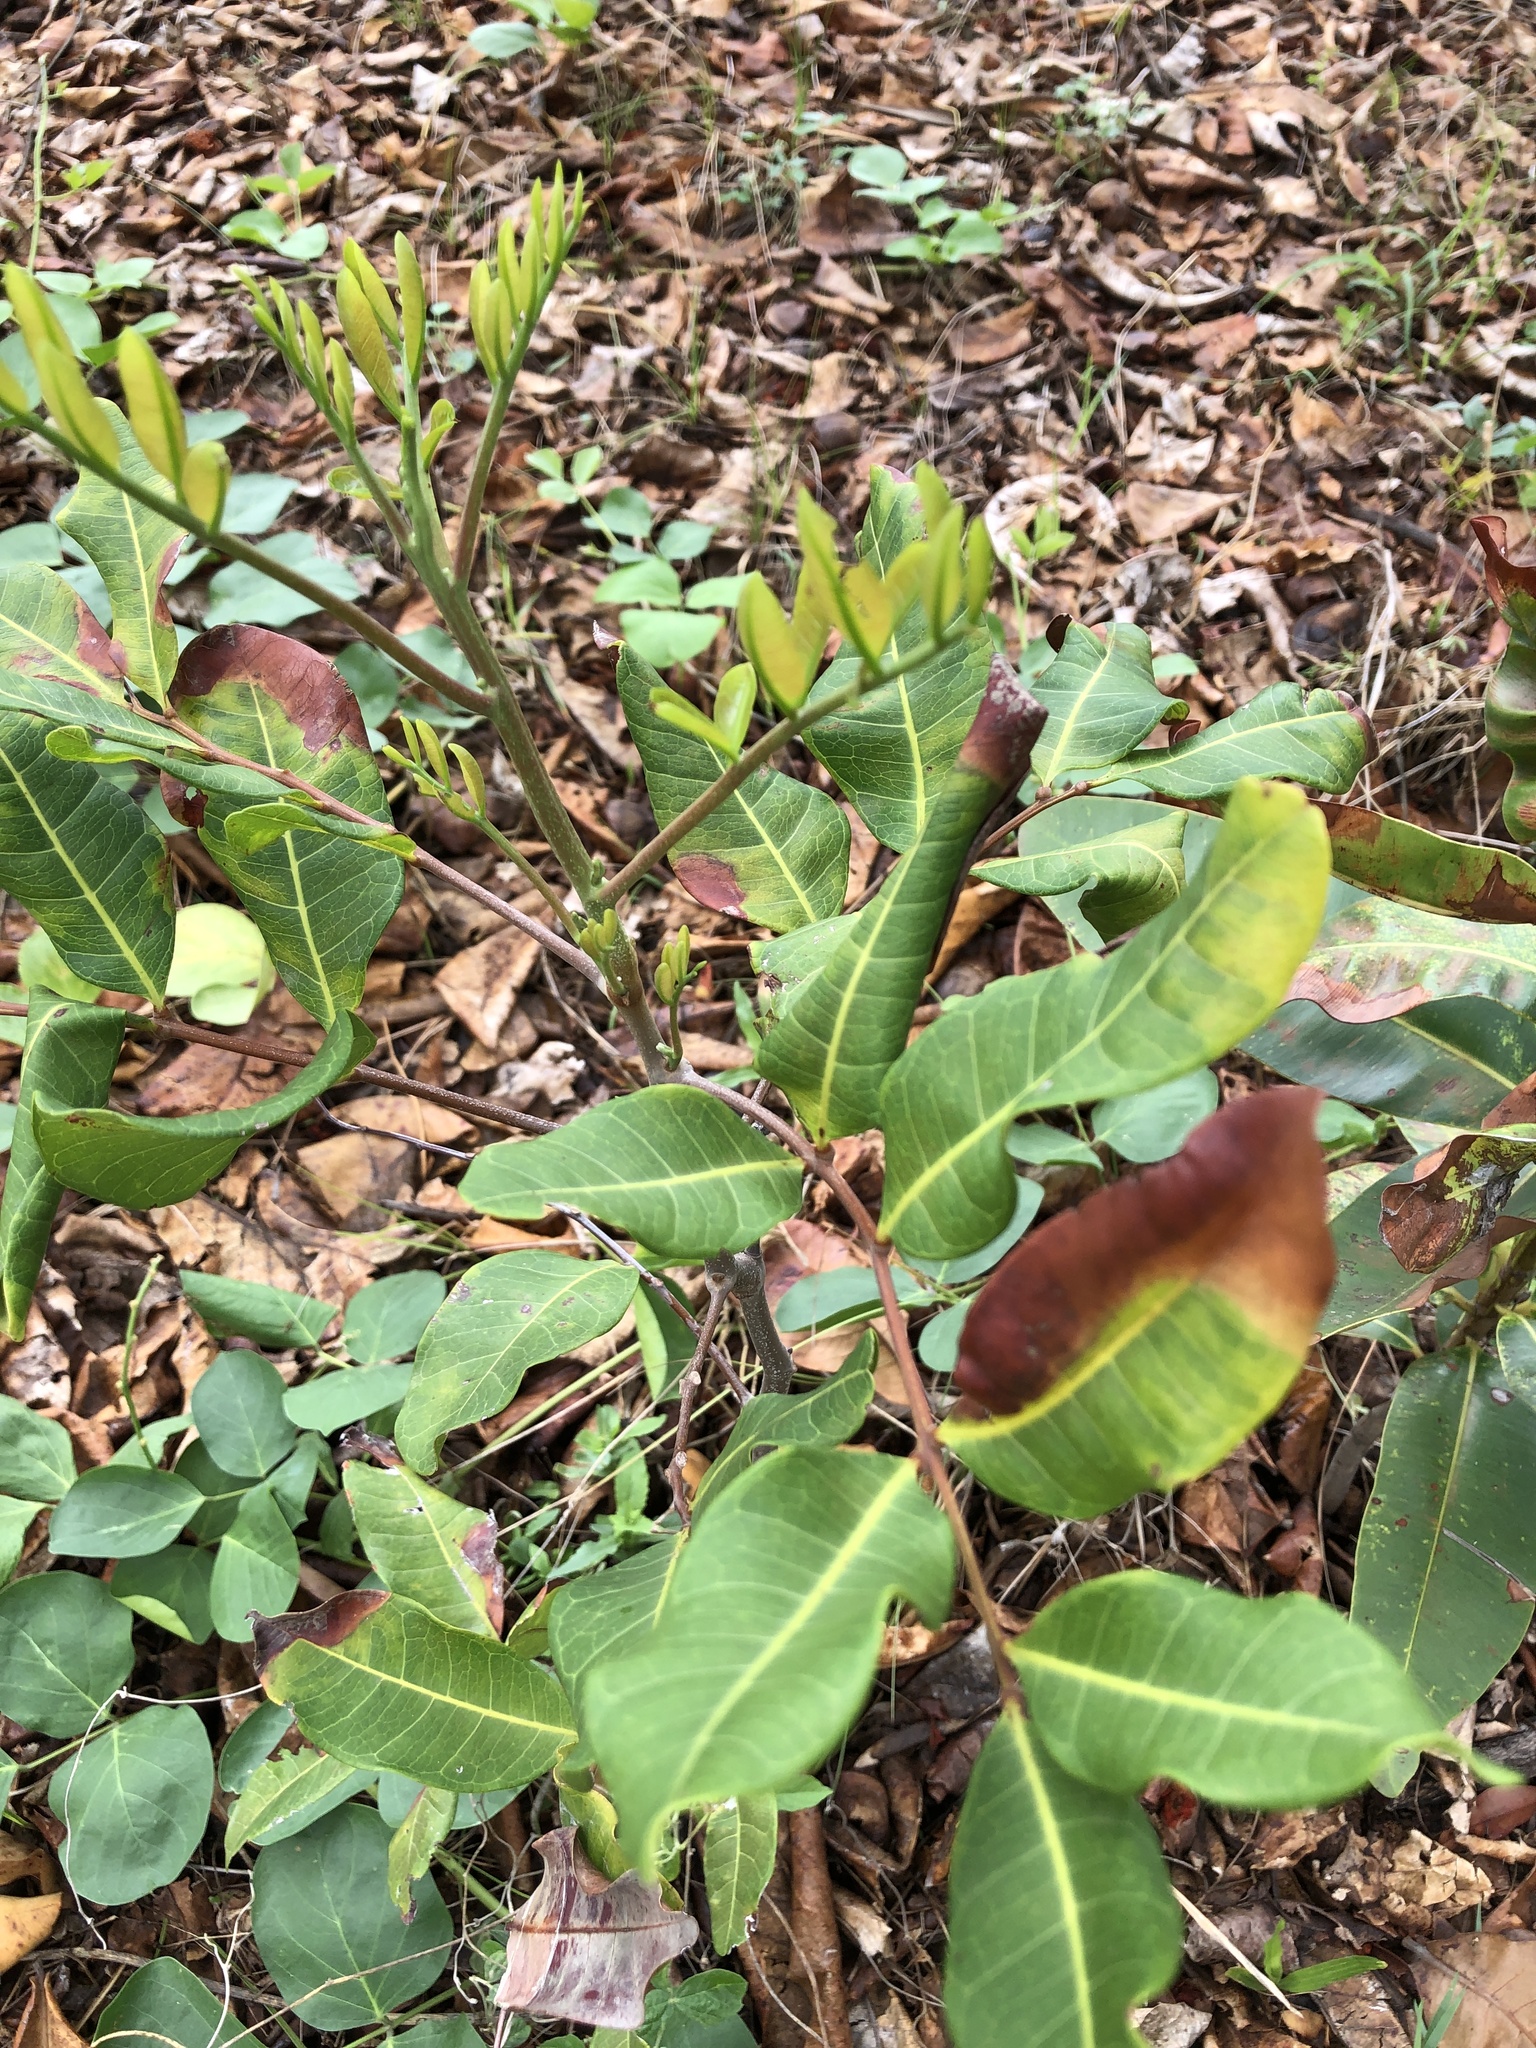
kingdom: Plantae
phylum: Tracheophyta
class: Magnoliopsida
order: Sapindales
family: Sapindaceae
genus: Cupaniopsis
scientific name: Cupaniopsis anacardioides
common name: Carrotwood
